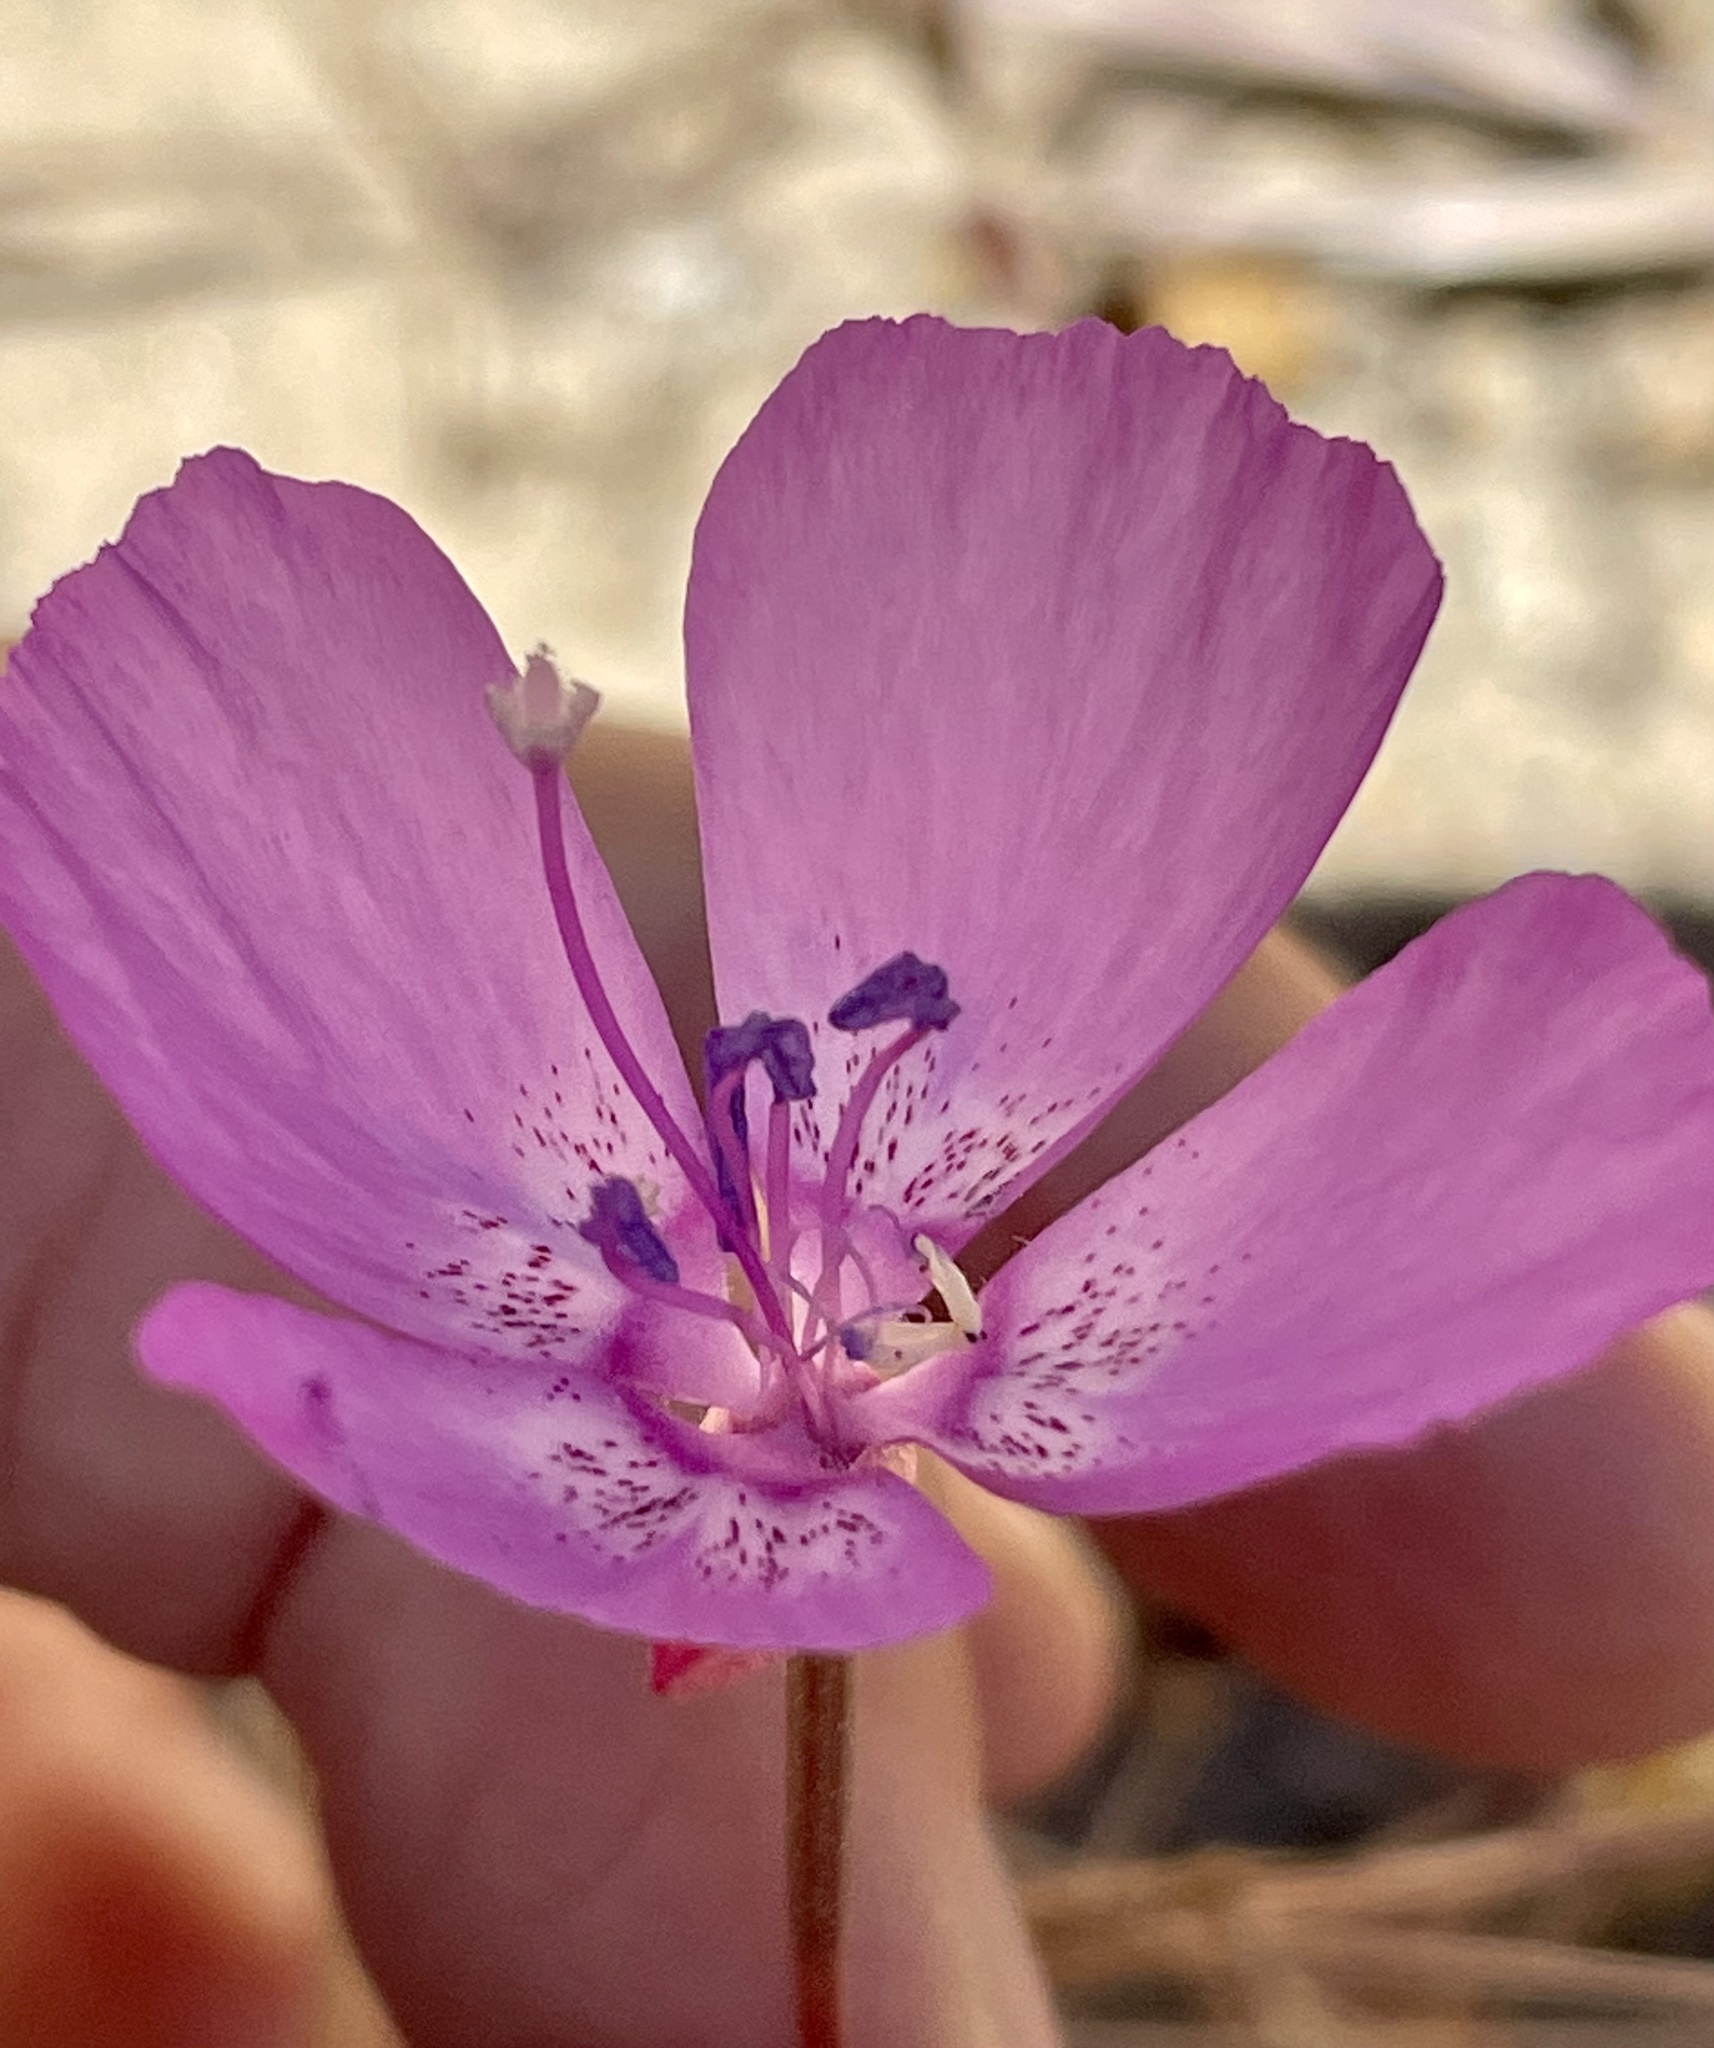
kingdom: Plantae
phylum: Tracheophyta
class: Magnoliopsida
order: Myrtales
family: Onagraceae
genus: Clarkia
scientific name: Clarkia lewisii
